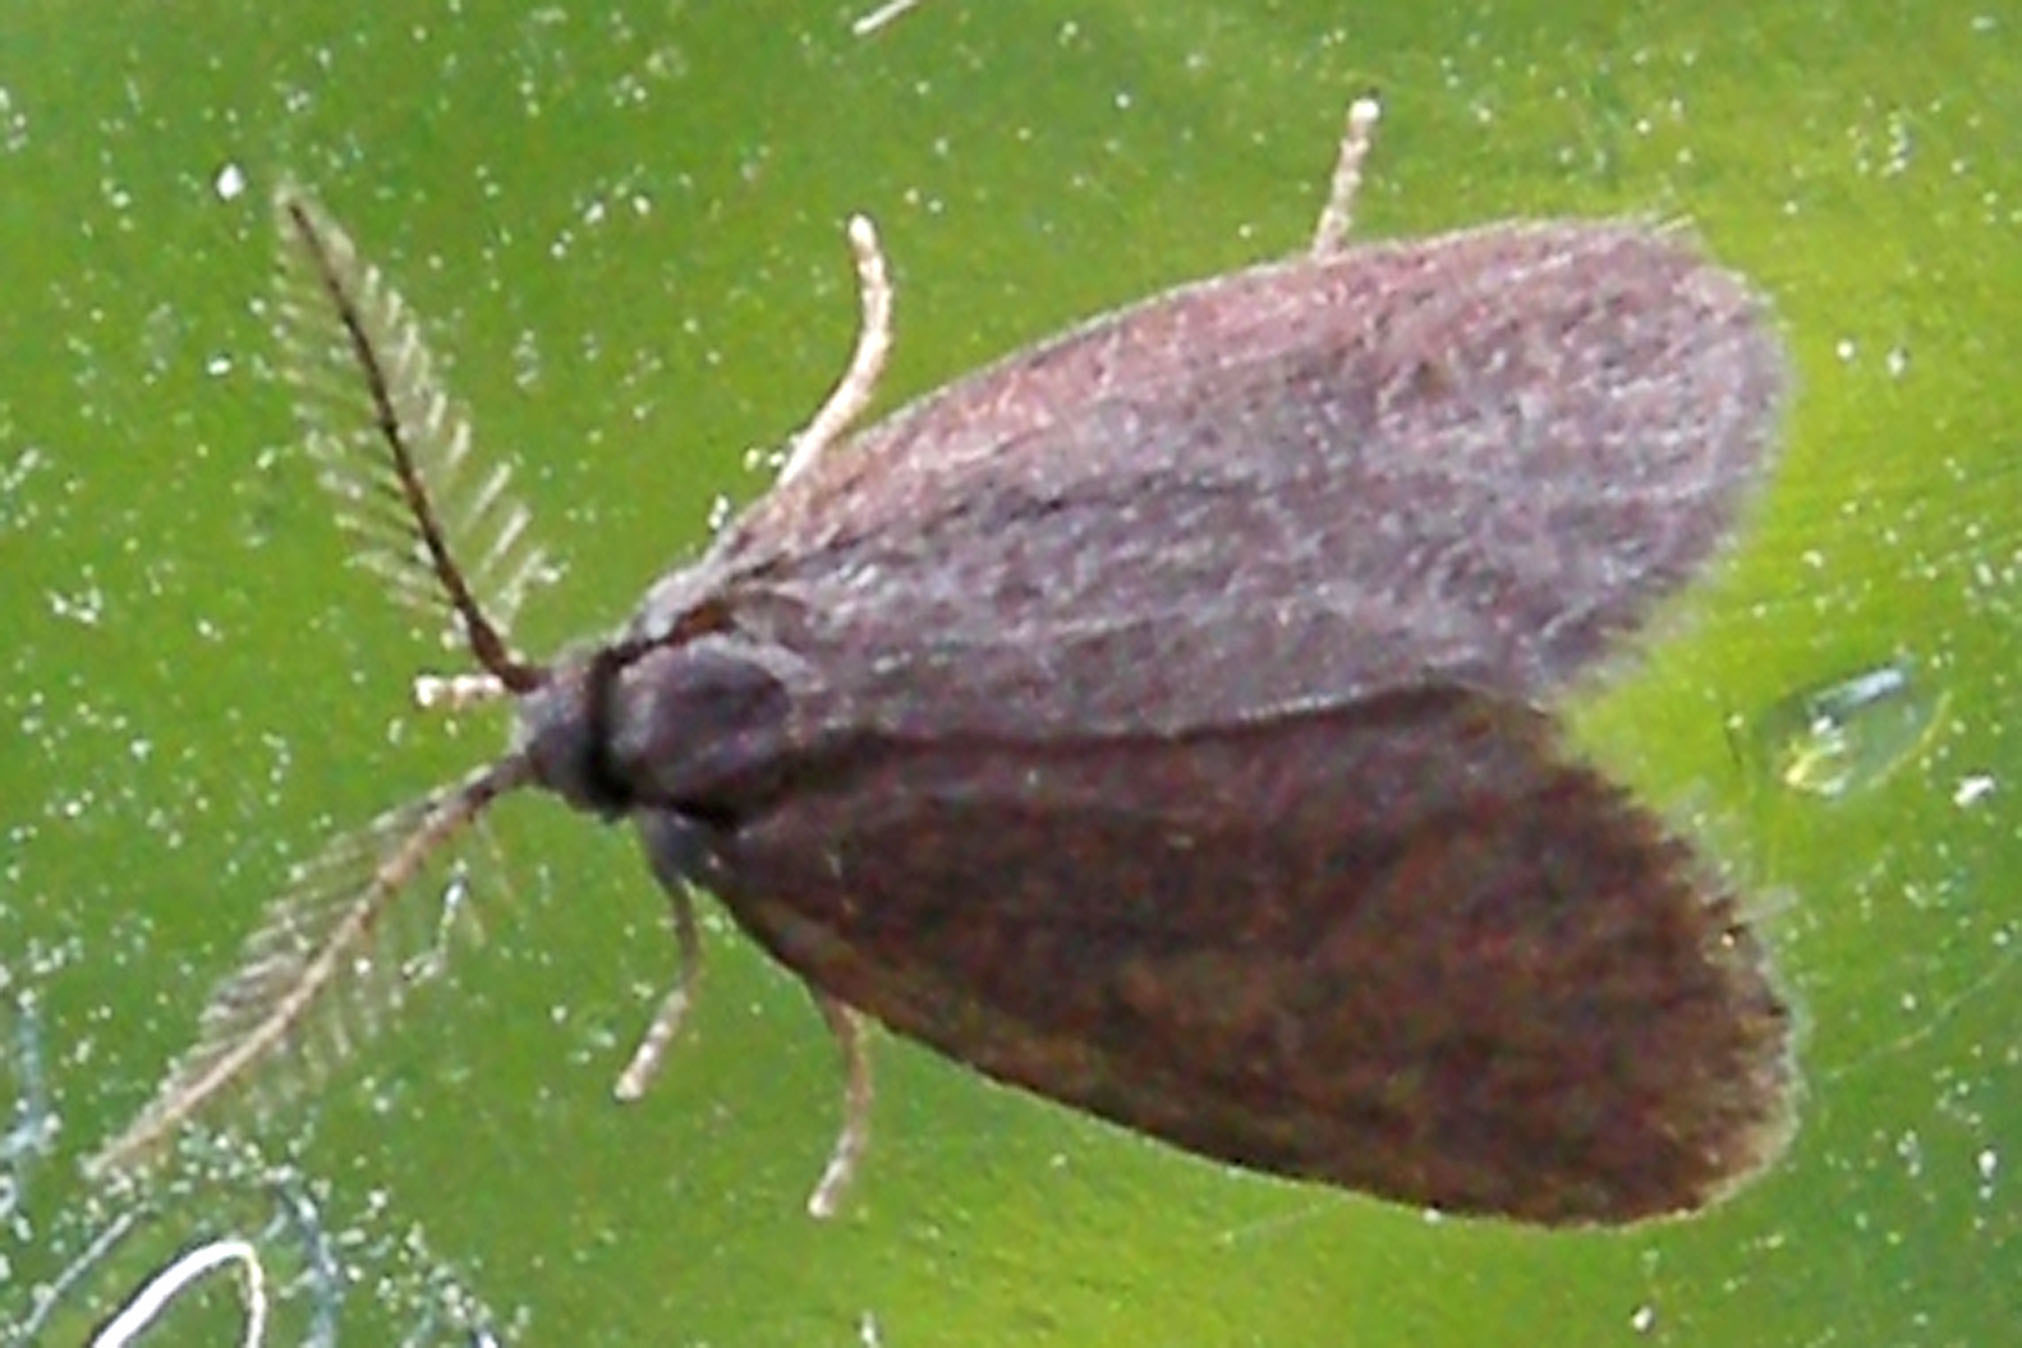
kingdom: Animalia
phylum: Arthropoda
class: Insecta
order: Lepidoptera
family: Psychidae
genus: Psyche
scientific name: Psyche casta
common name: Common sweep
